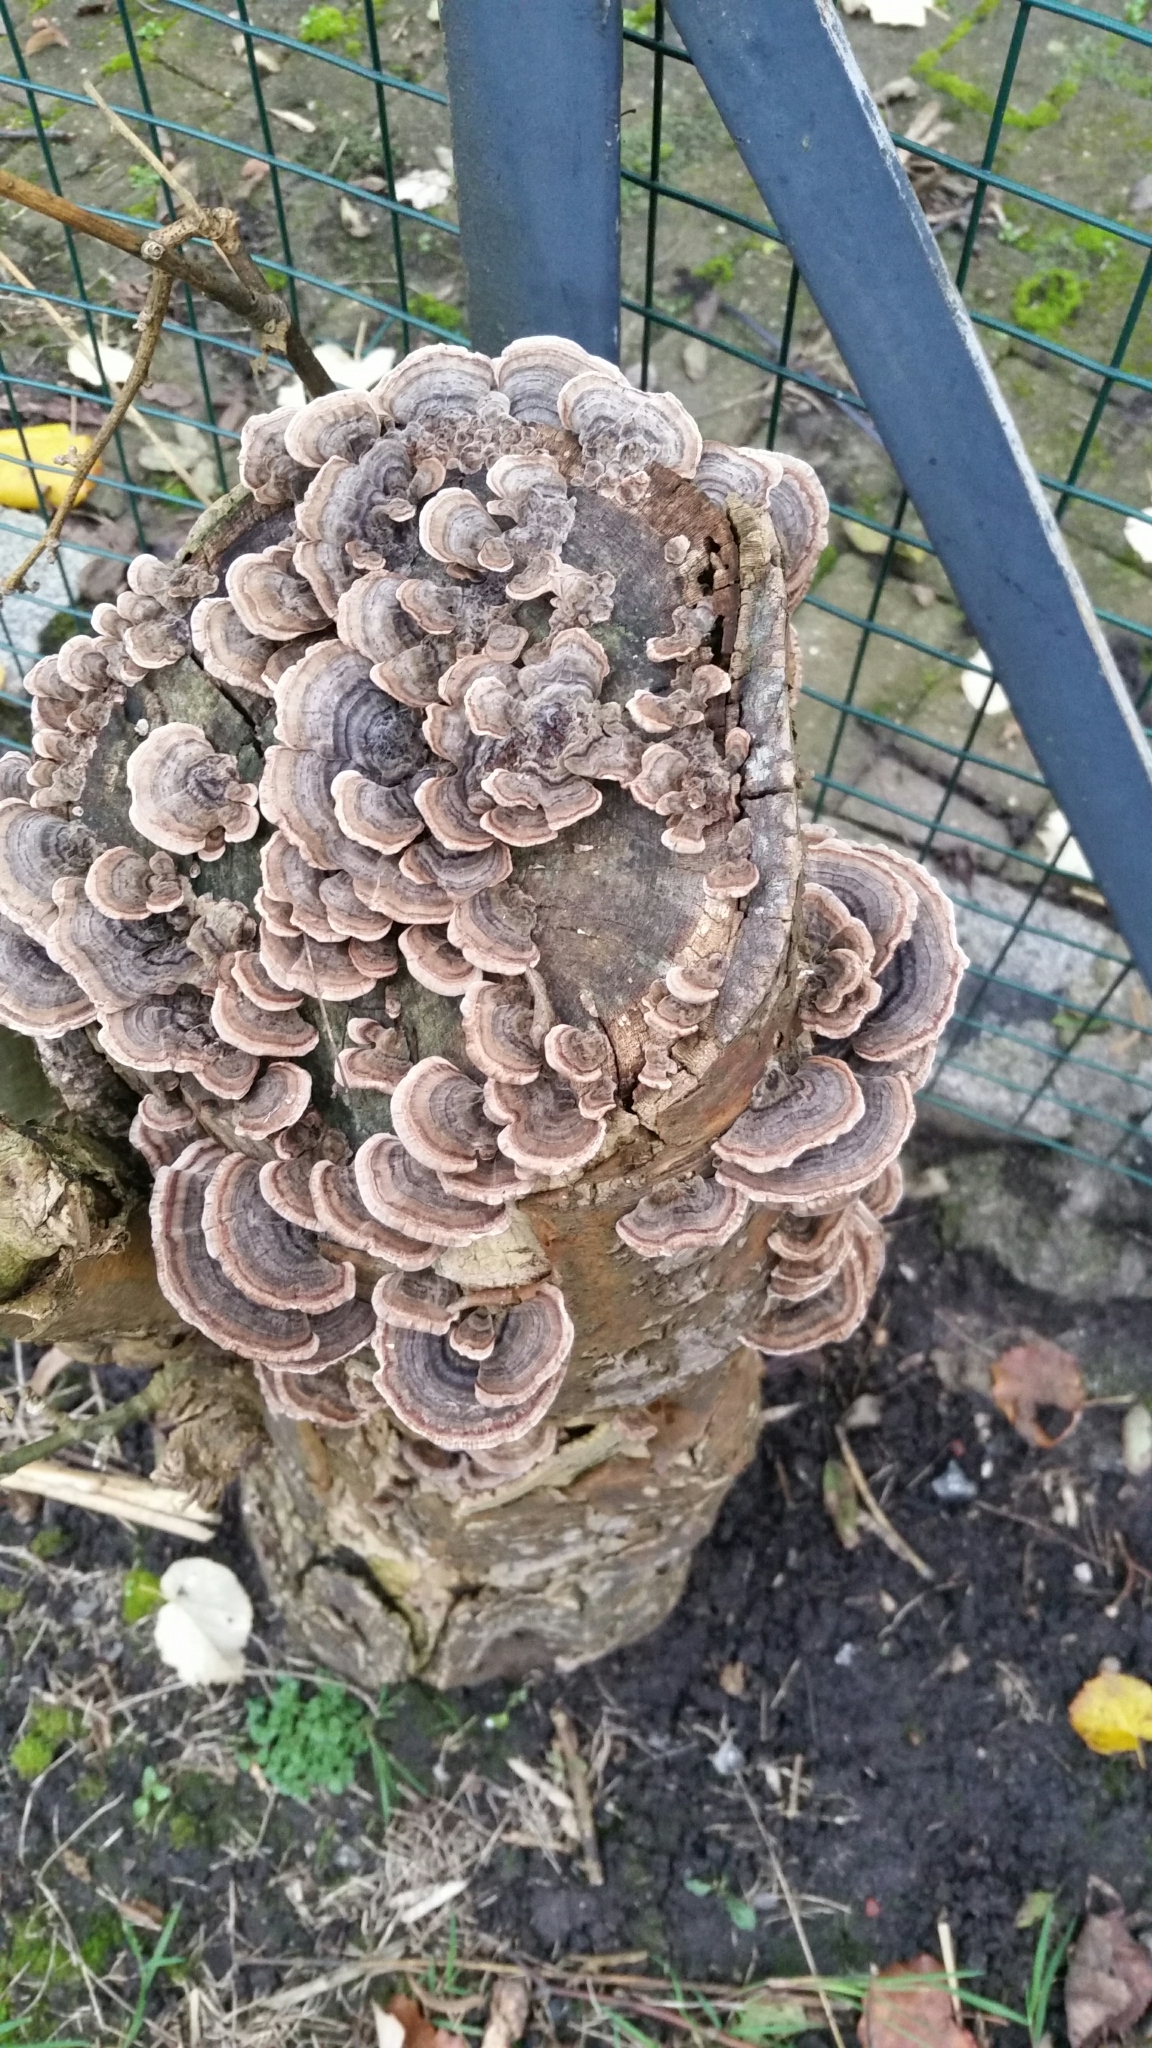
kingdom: Fungi
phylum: Basidiomycota
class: Agaricomycetes
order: Polyporales
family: Polyporaceae
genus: Trametes
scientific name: Trametes versicolor
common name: Turkeytail
